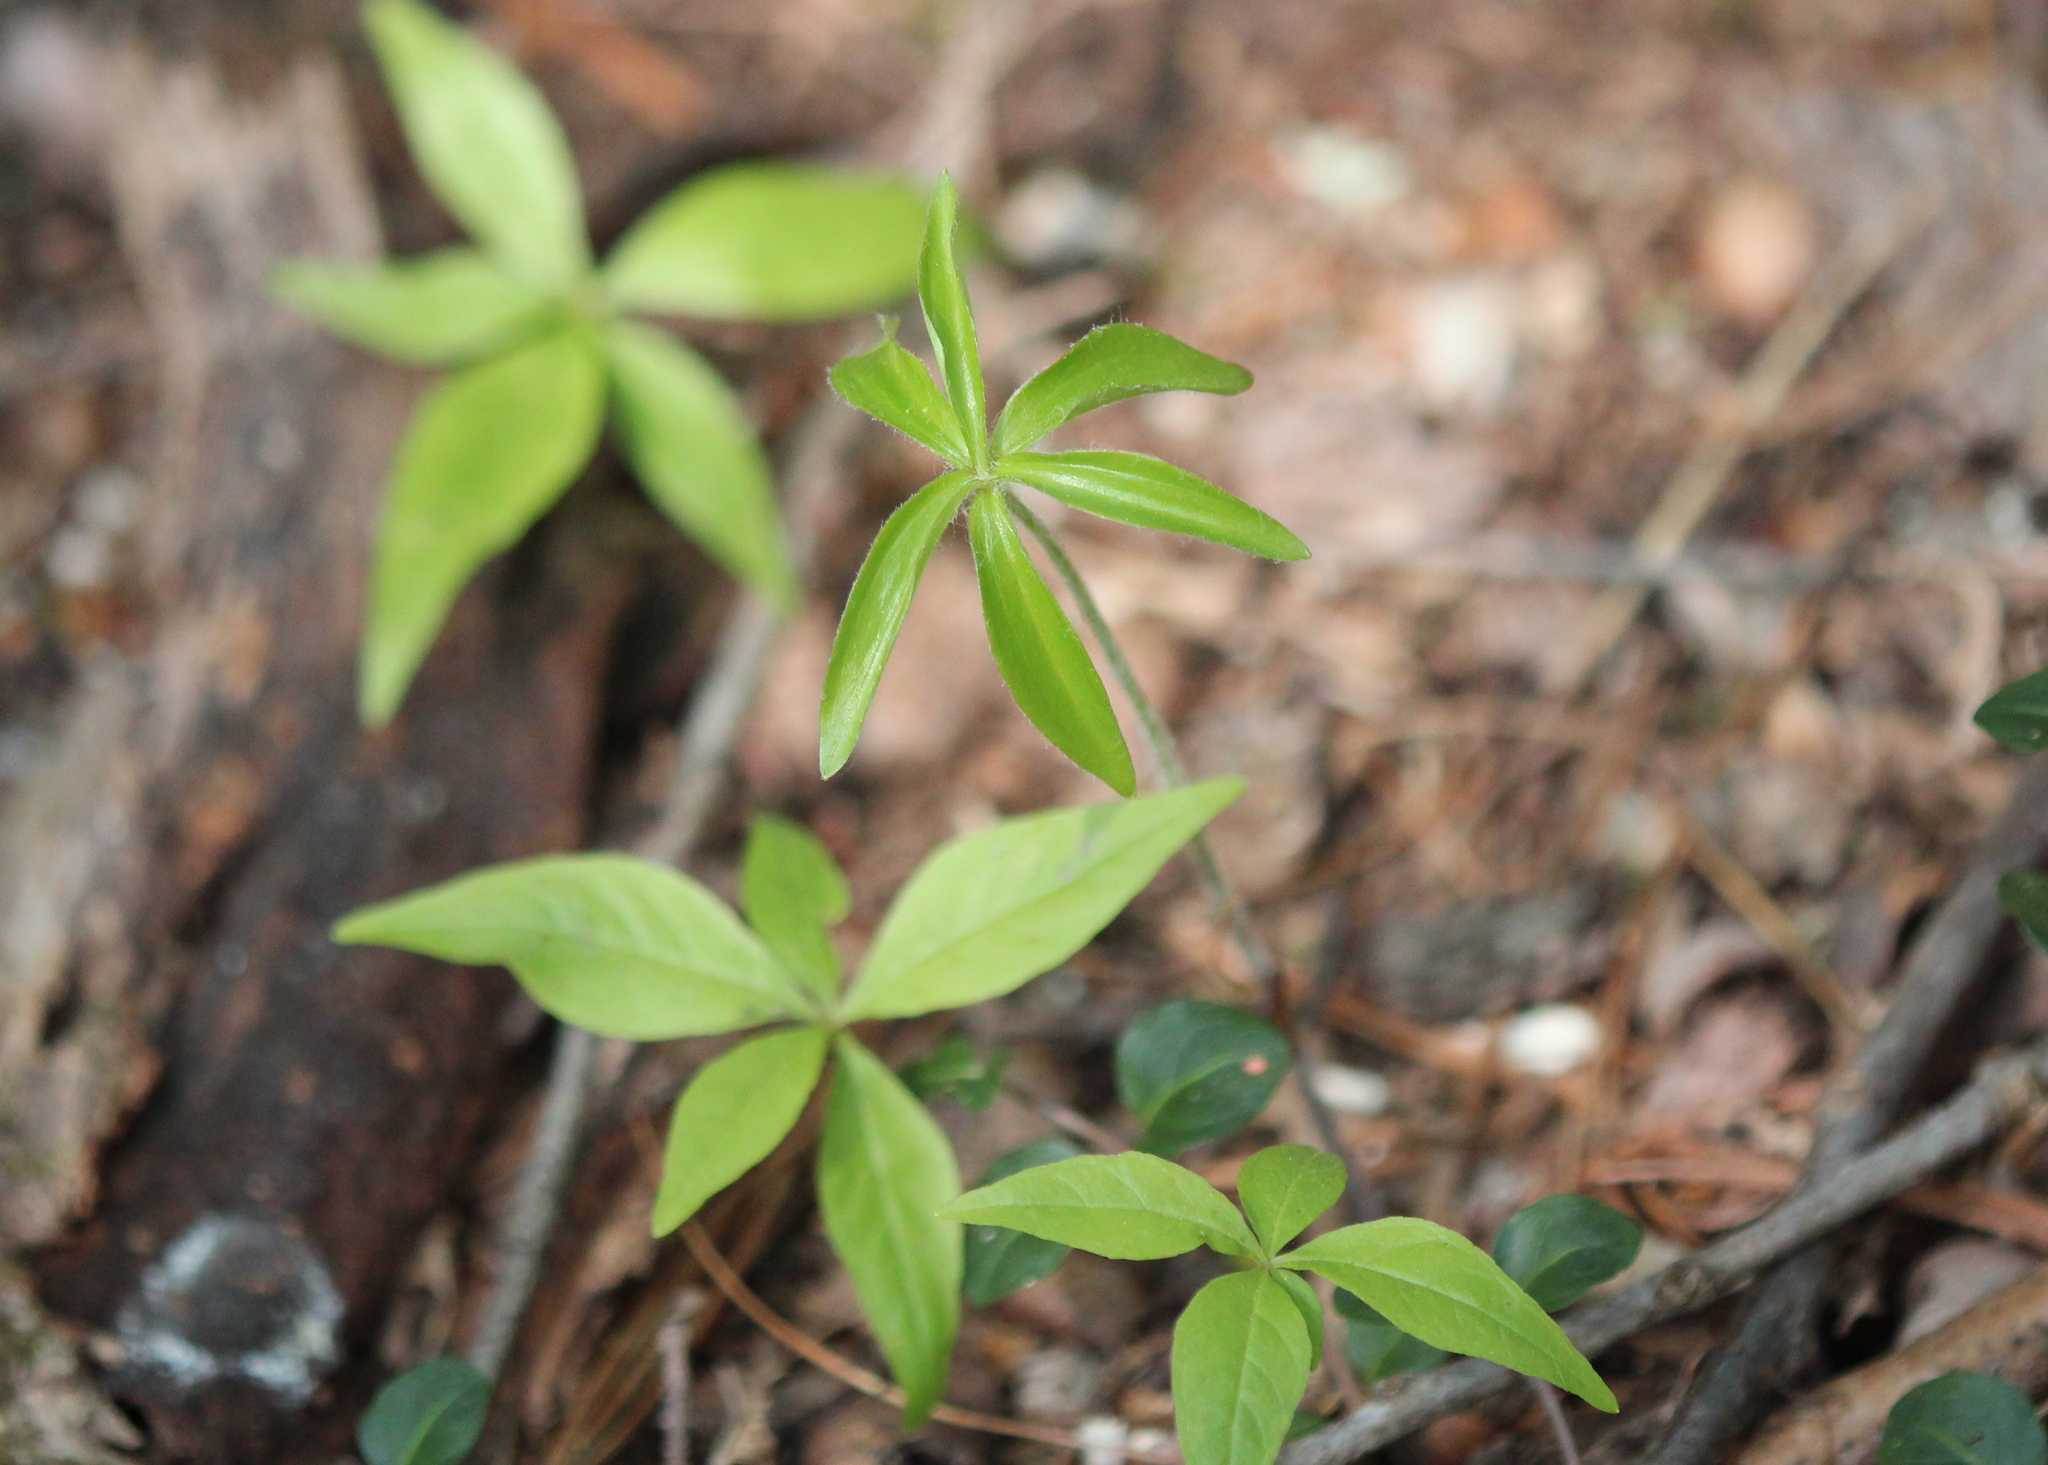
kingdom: Plantae
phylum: Tracheophyta
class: Liliopsida
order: Liliales
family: Liliaceae
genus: Medeola
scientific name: Medeola virginiana
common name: Indian cucumber-root
